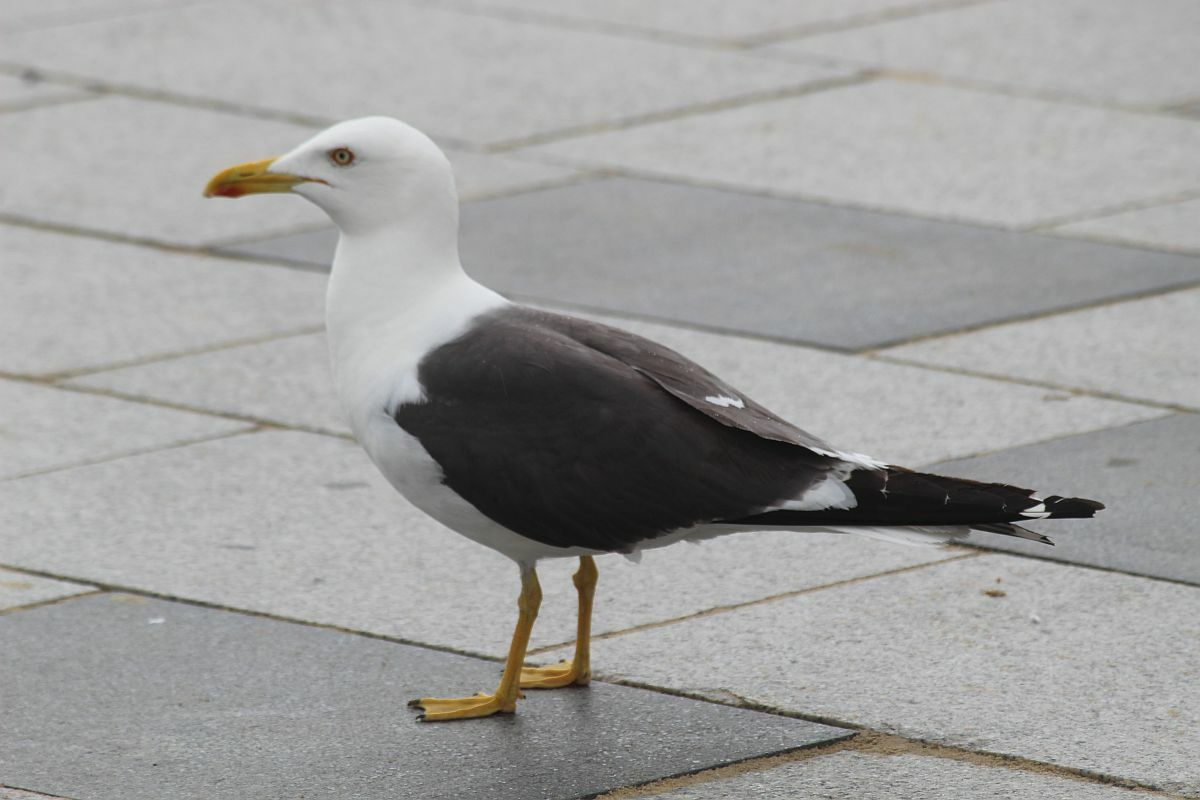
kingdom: Animalia
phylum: Chordata
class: Aves
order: Charadriiformes
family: Laridae
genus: Larus
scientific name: Larus fuscus
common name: Lesser black-backed gull
